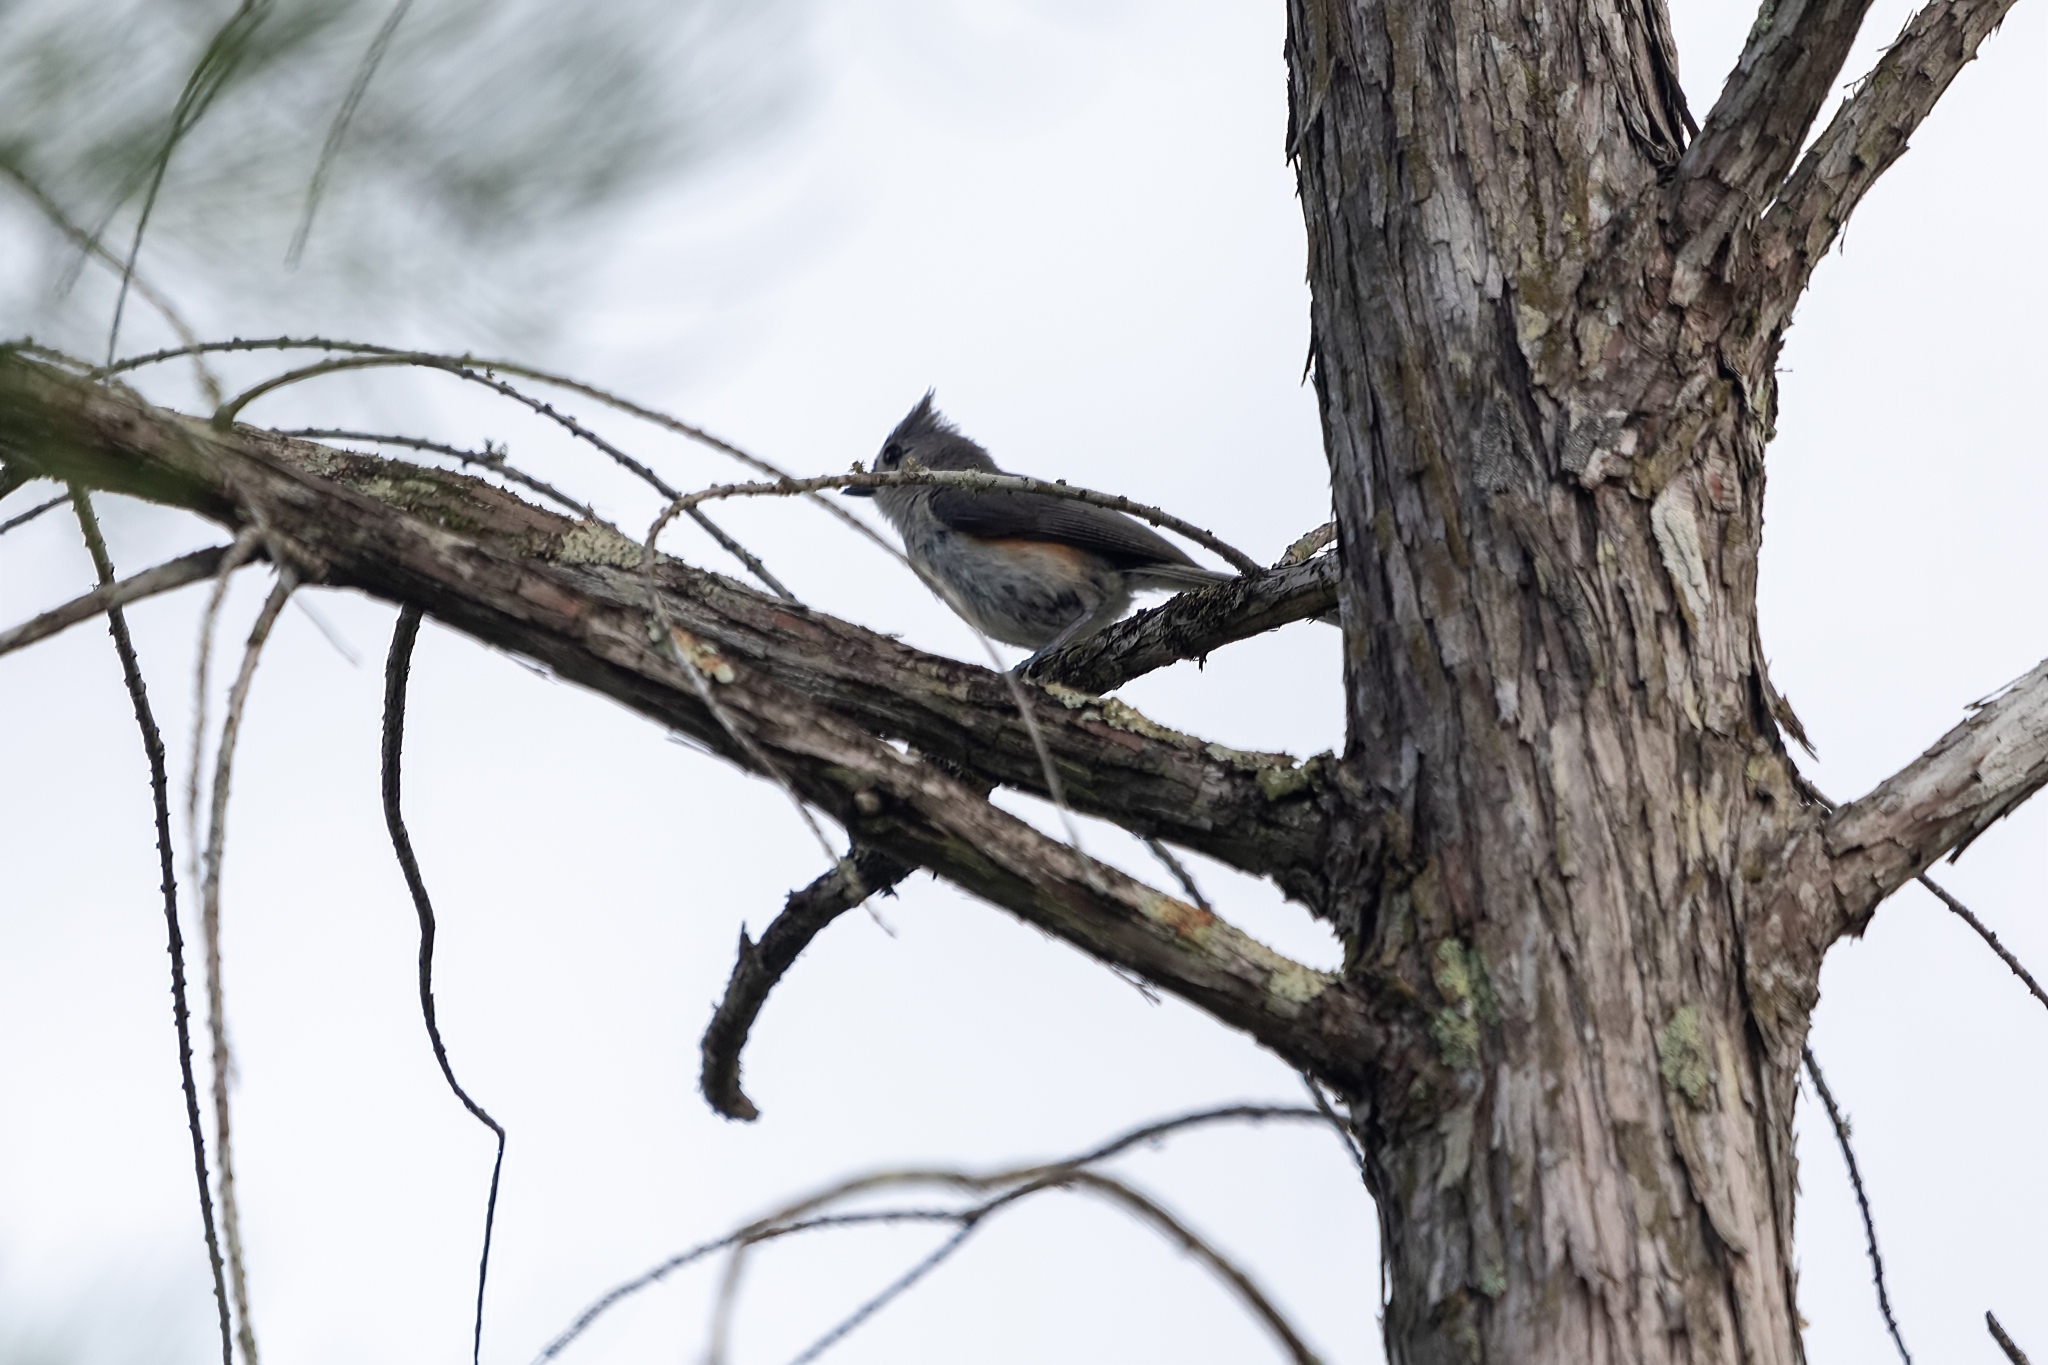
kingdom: Animalia
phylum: Chordata
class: Aves
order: Passeriformes
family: Paridae
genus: Baeolophus
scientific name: Baeolophus bicolor
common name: Tufted titmouse
